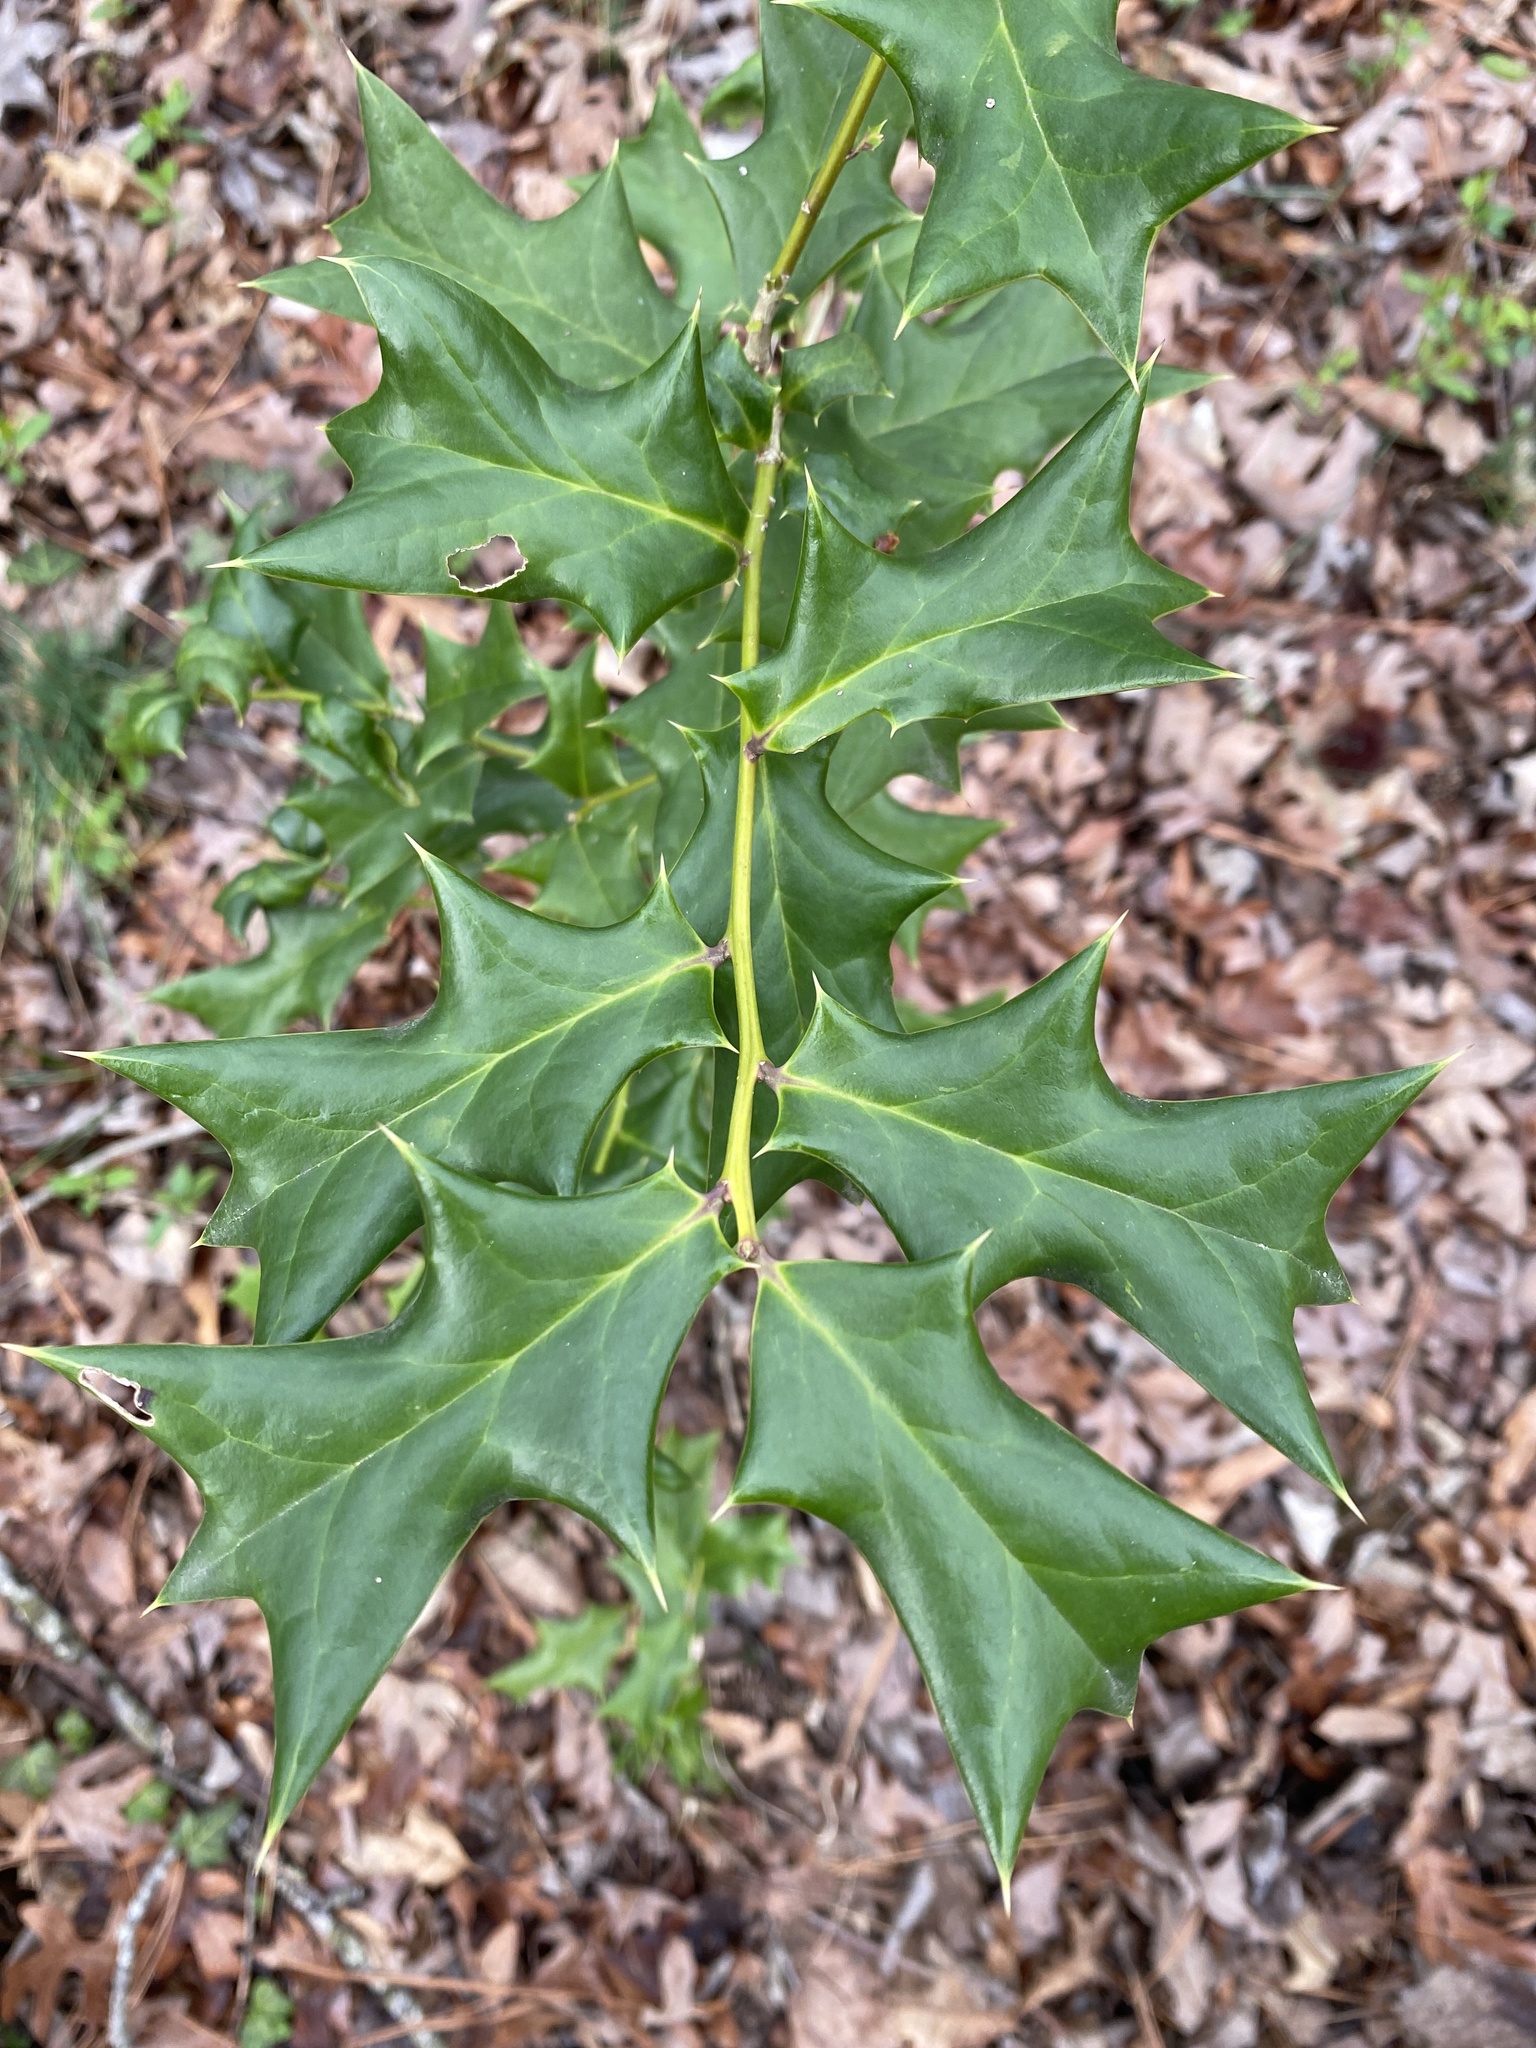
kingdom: Plantae
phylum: Tracheophyta
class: Magnoliopsida
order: Aquifoliales
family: Aquifoliaceae
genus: Ilex
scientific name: Ilex cornuta
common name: Chinese holly
